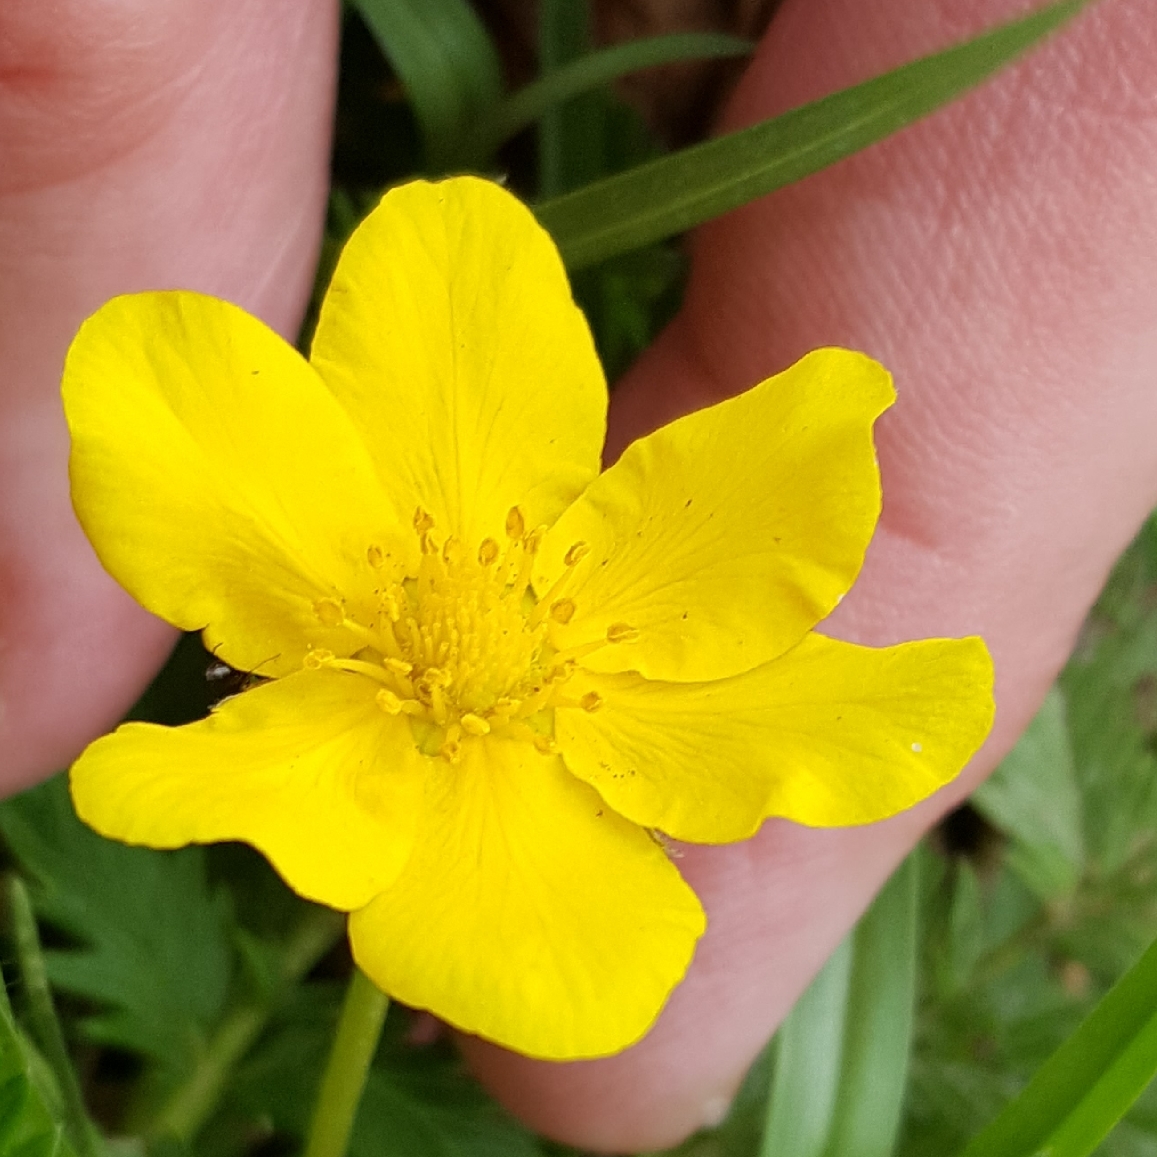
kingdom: Plantae
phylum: Tracheophyta
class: Magnoliopsida
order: Rosales
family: Rosaceae
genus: Argentina
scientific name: Argentina anserina
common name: Common silverweed
